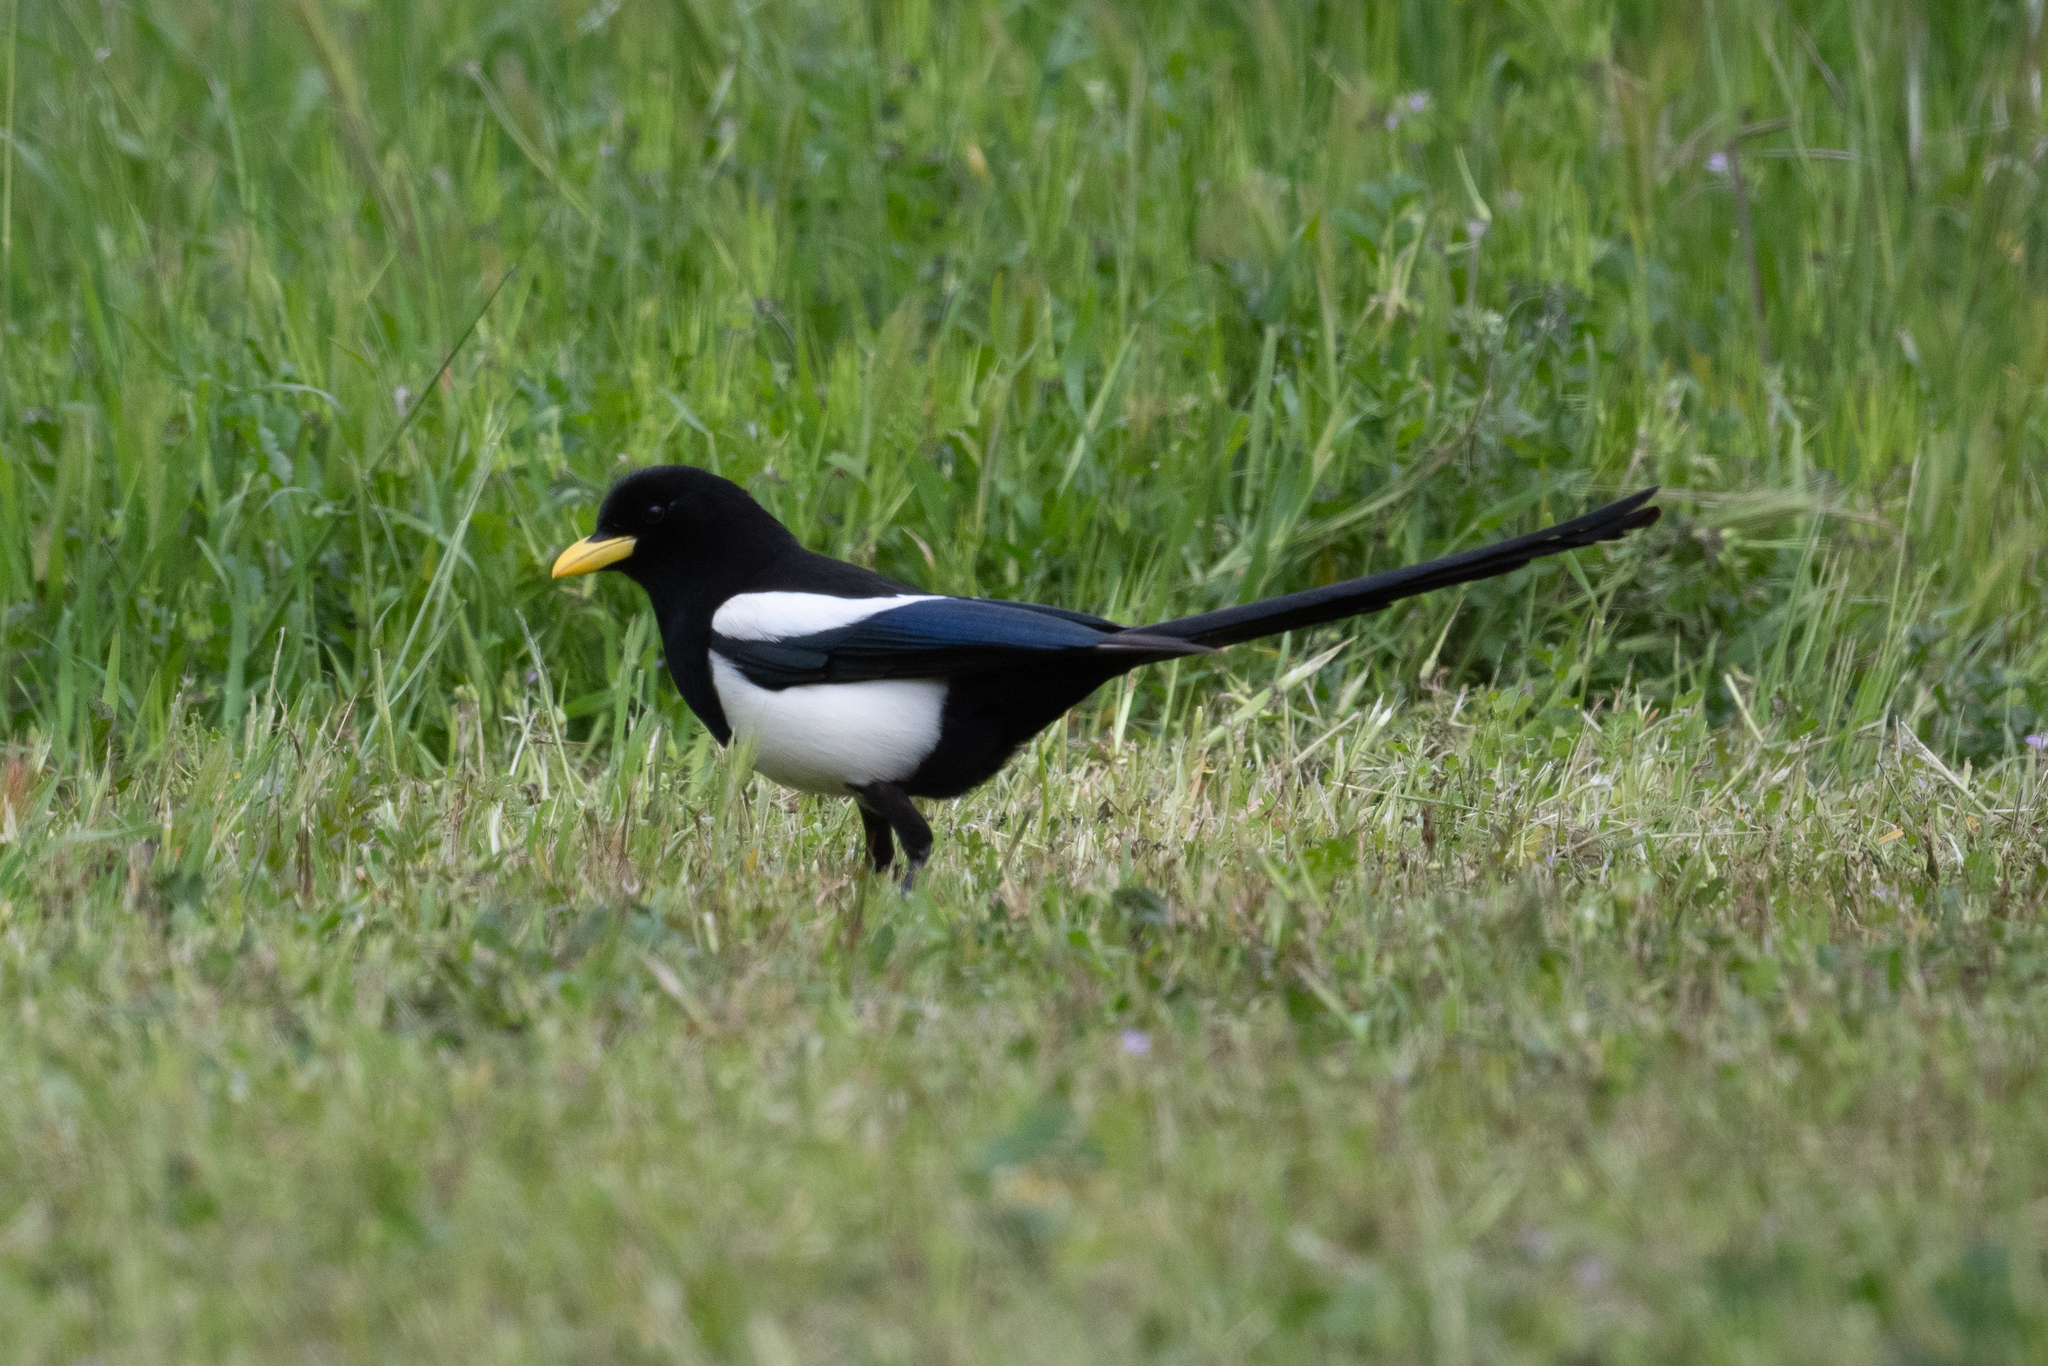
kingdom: Animalia
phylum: Chordata
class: Aves
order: Passeriformes
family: Corvidae
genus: Pica
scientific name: Pica nuttalli
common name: Yellow-billed magpie
